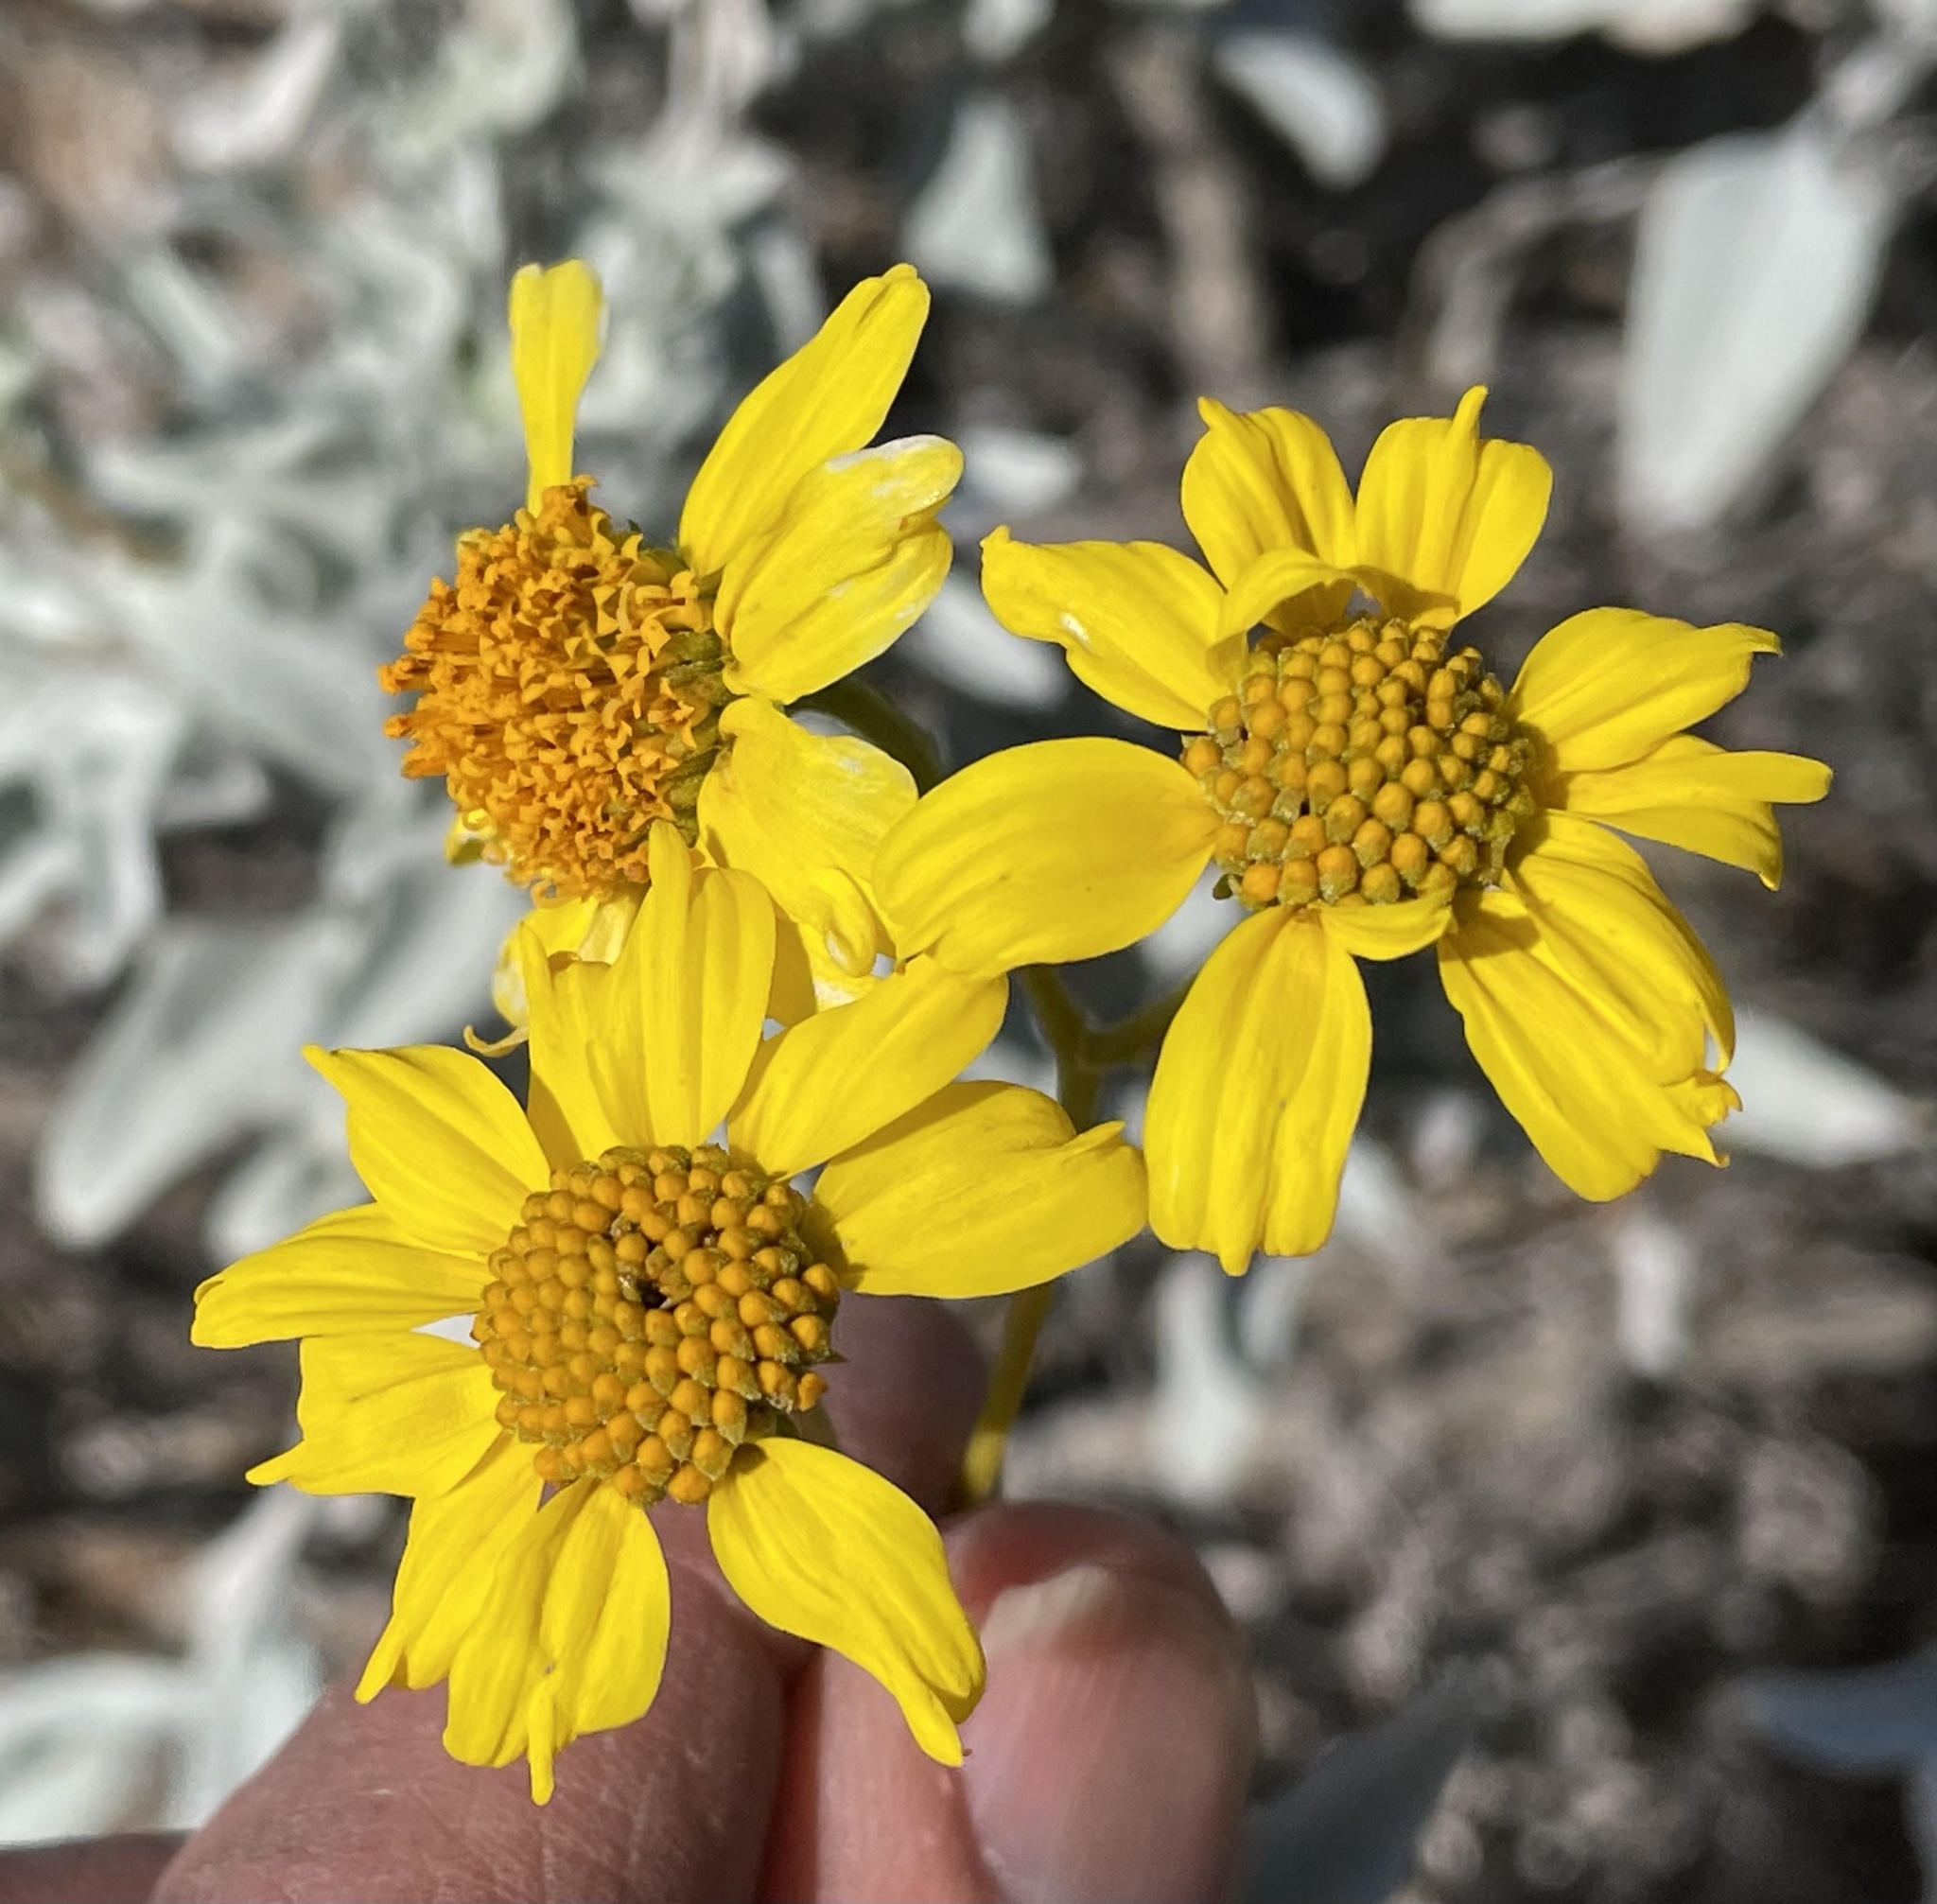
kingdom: Plantae
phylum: Tracheophyta
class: Magnoliopsida
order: Asterales
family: Asteraceae
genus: Encelia
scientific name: Encelia farinosa
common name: Brittlebush
